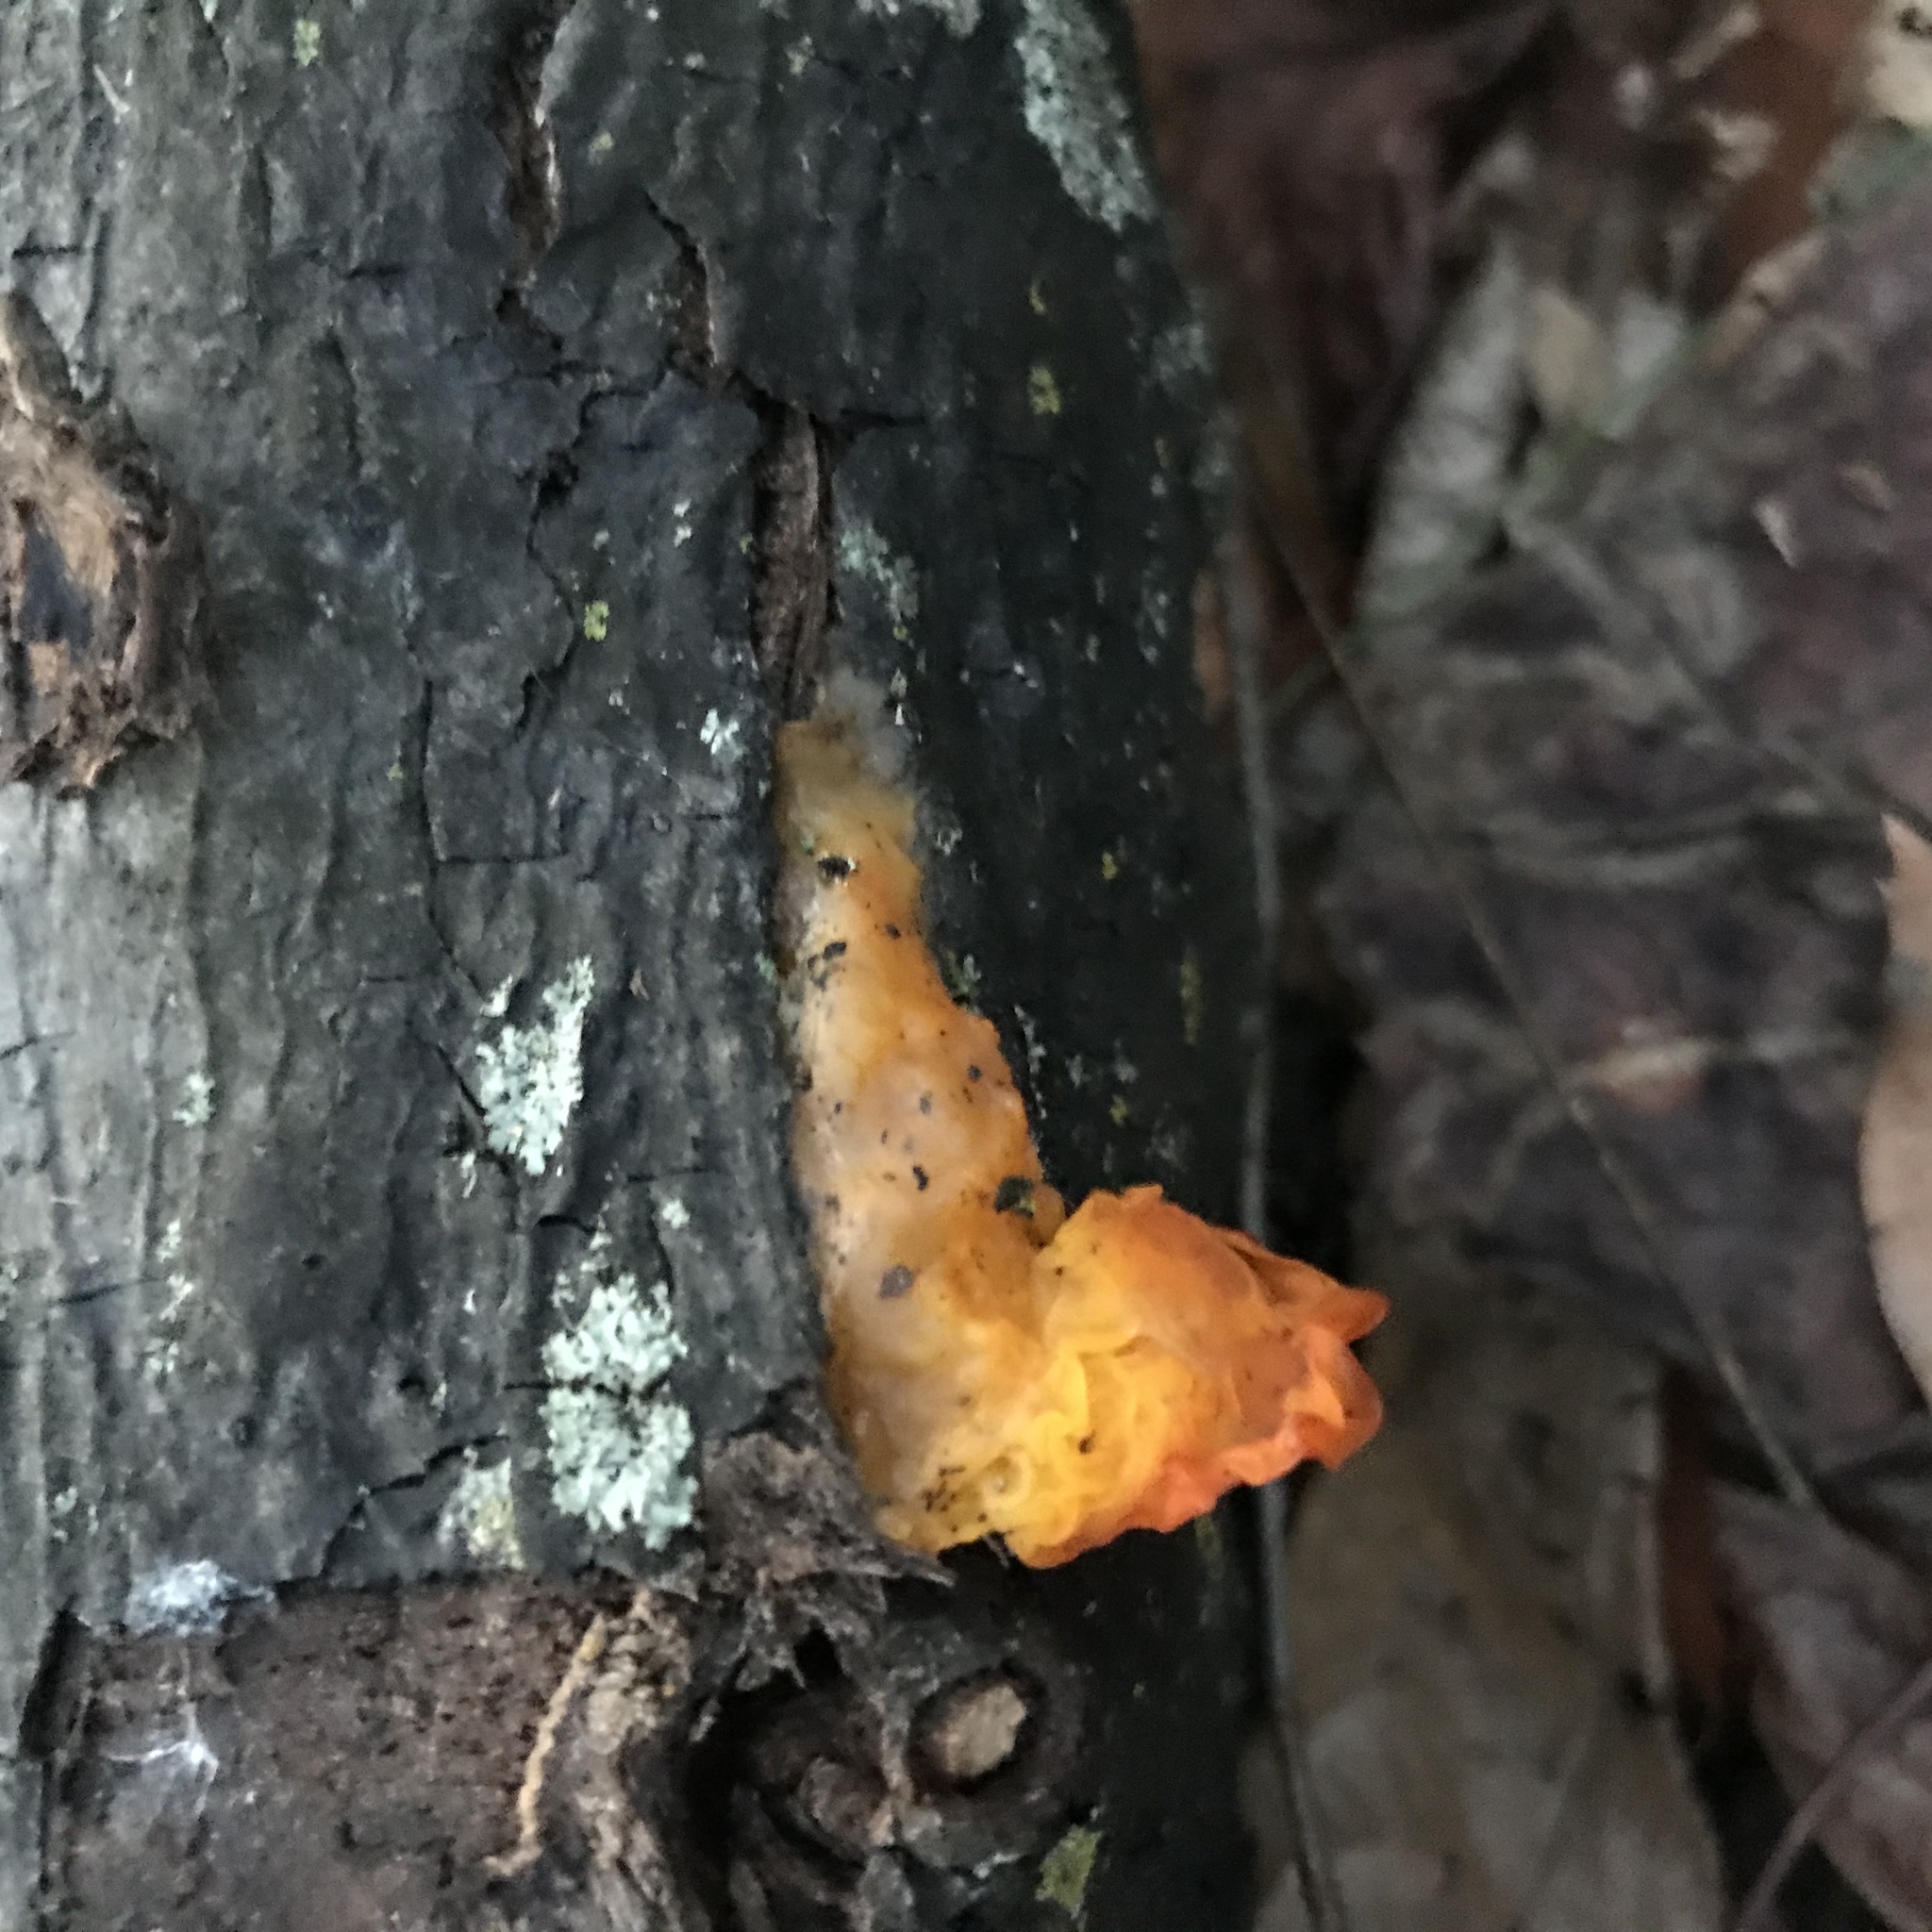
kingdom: Fungi
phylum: Basidiomycota
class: Tremellomycetes
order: Tremellales
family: Tremellaceae
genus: Tremella
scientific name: Tremella mesenterica
